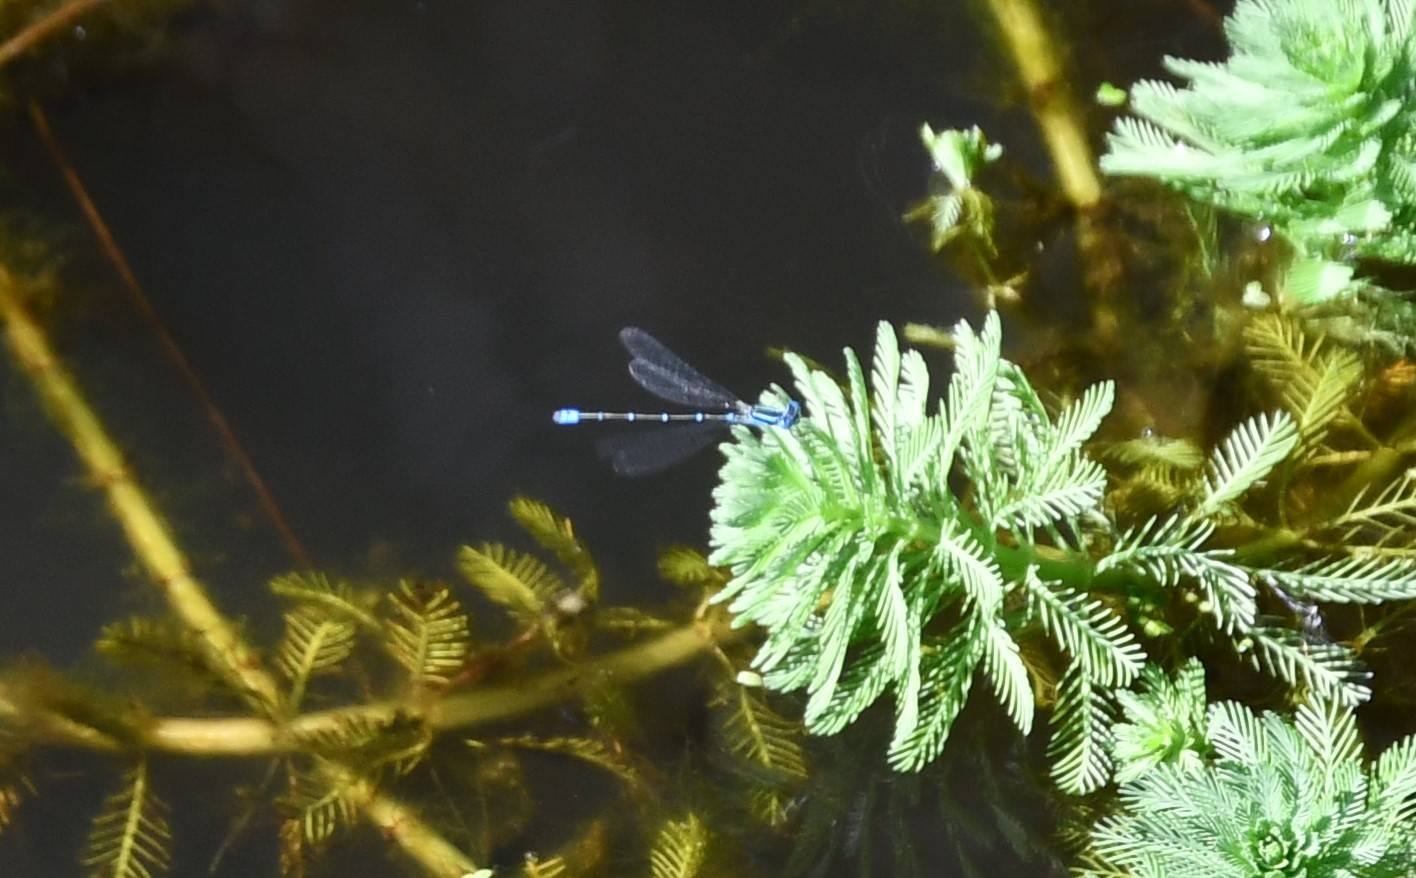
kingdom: Animalia
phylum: Arthropoda
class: Insecta
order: Odonata
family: Coenagrionidae
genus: Austroagrion
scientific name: Austroagrion watsoni
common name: Eastern billabongfly
